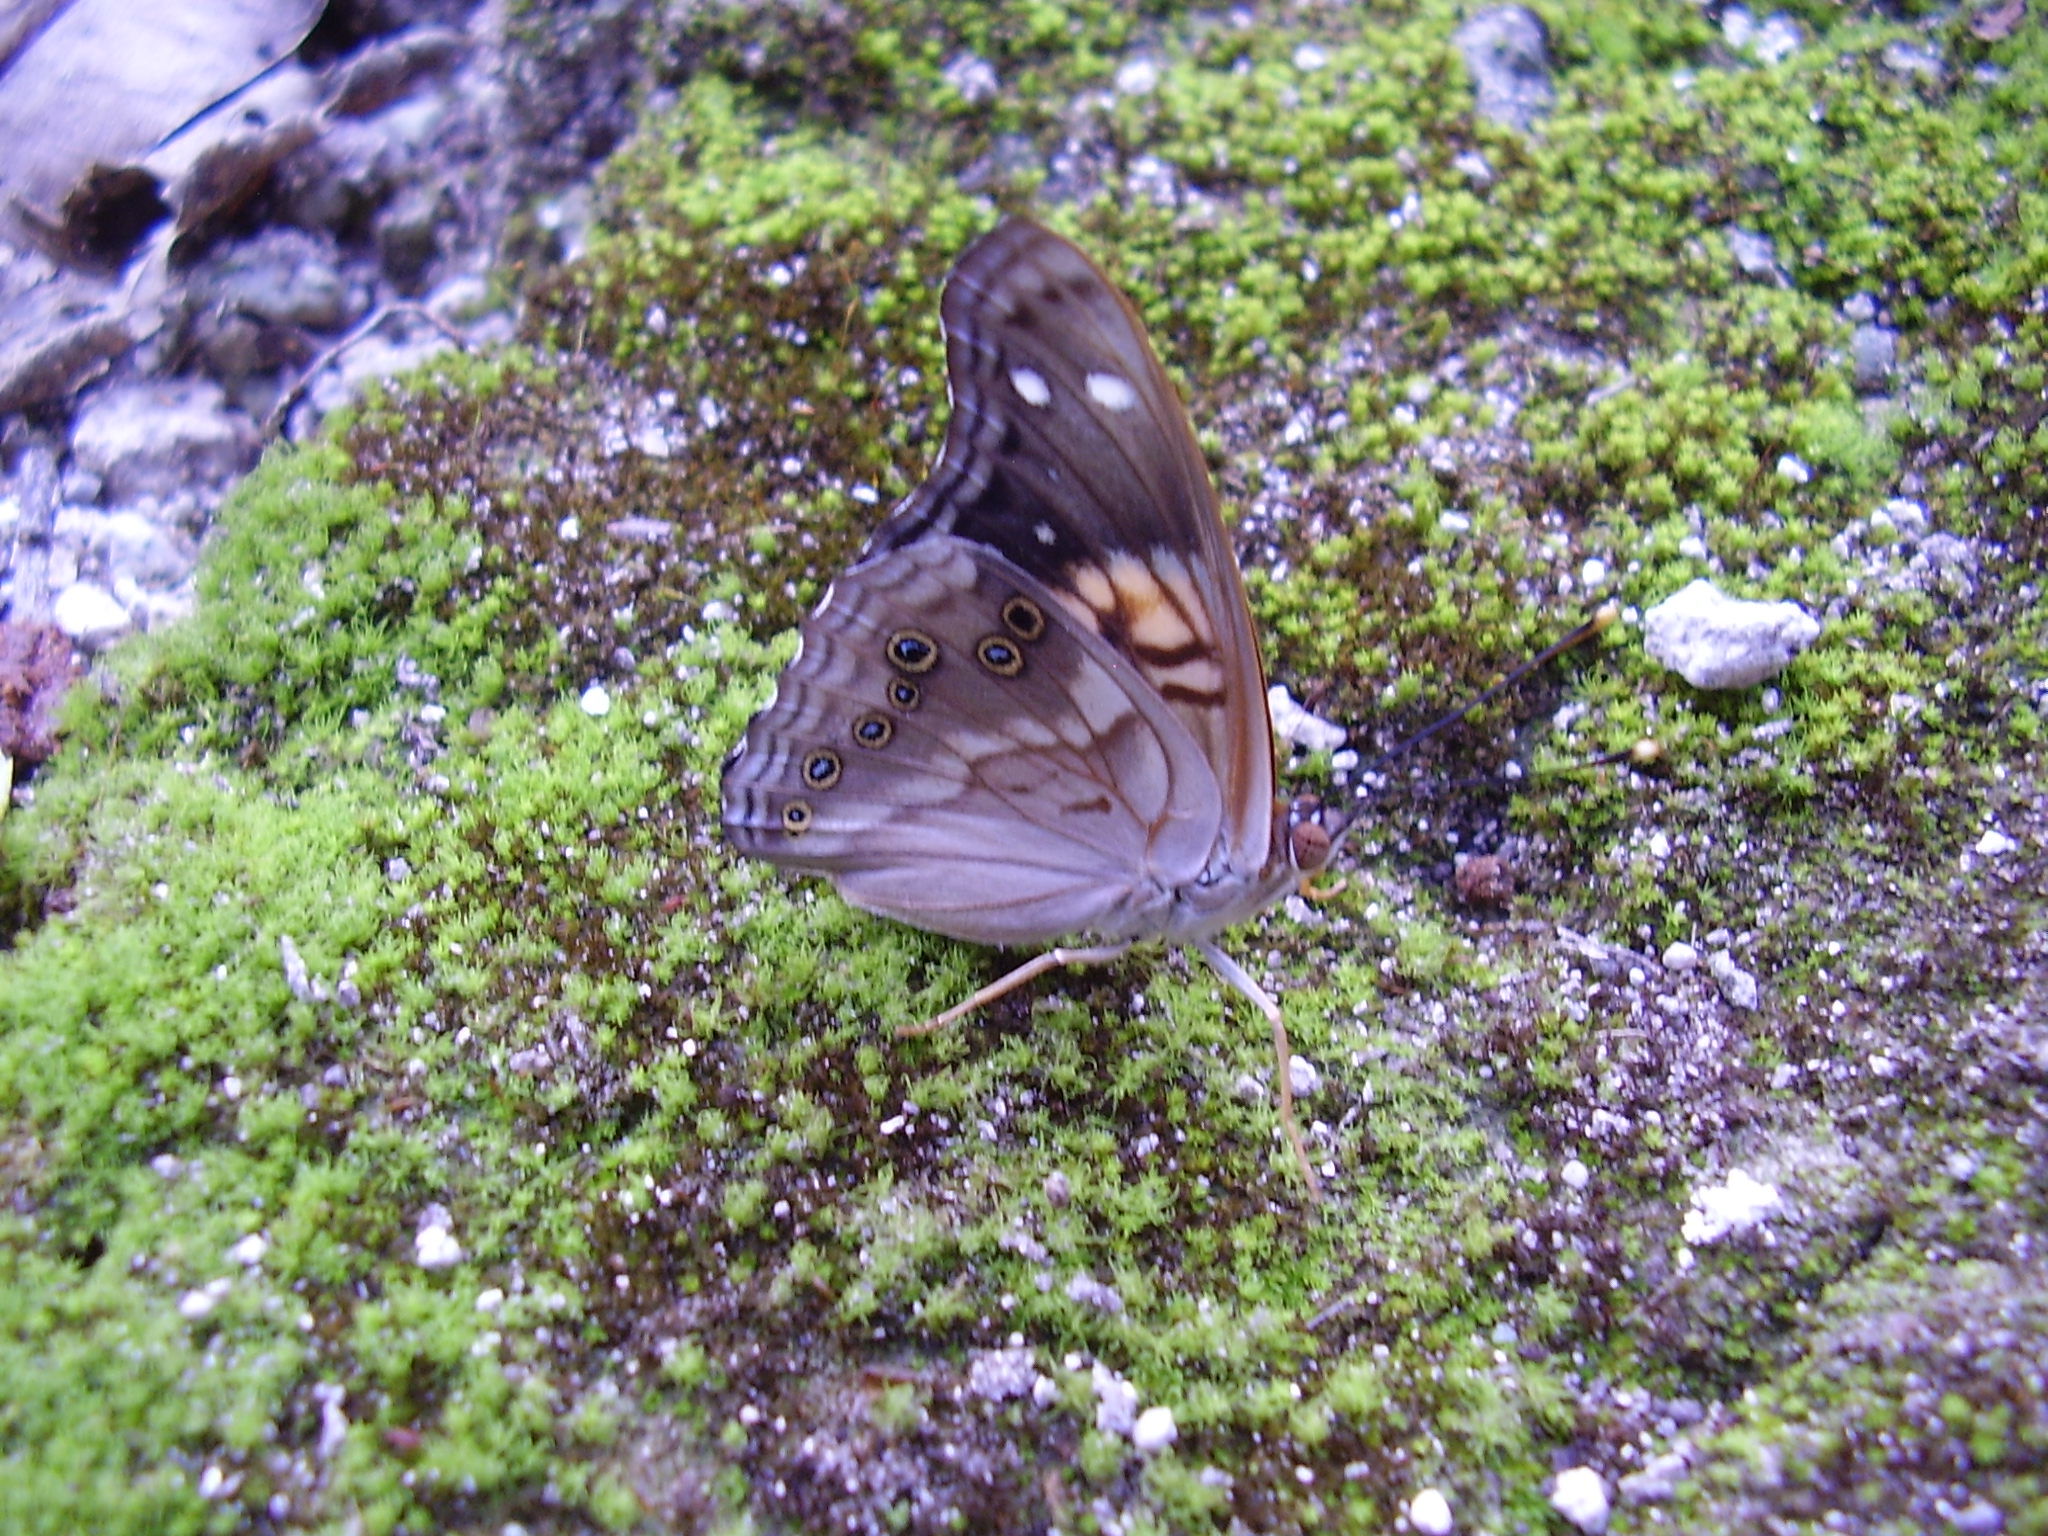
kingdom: Animalia
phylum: Arthropoda
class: Insecta
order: Lepidoptera
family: Nymphalidae
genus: Asterocampa
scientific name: Asterocampa idyja
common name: Dusky emperor
